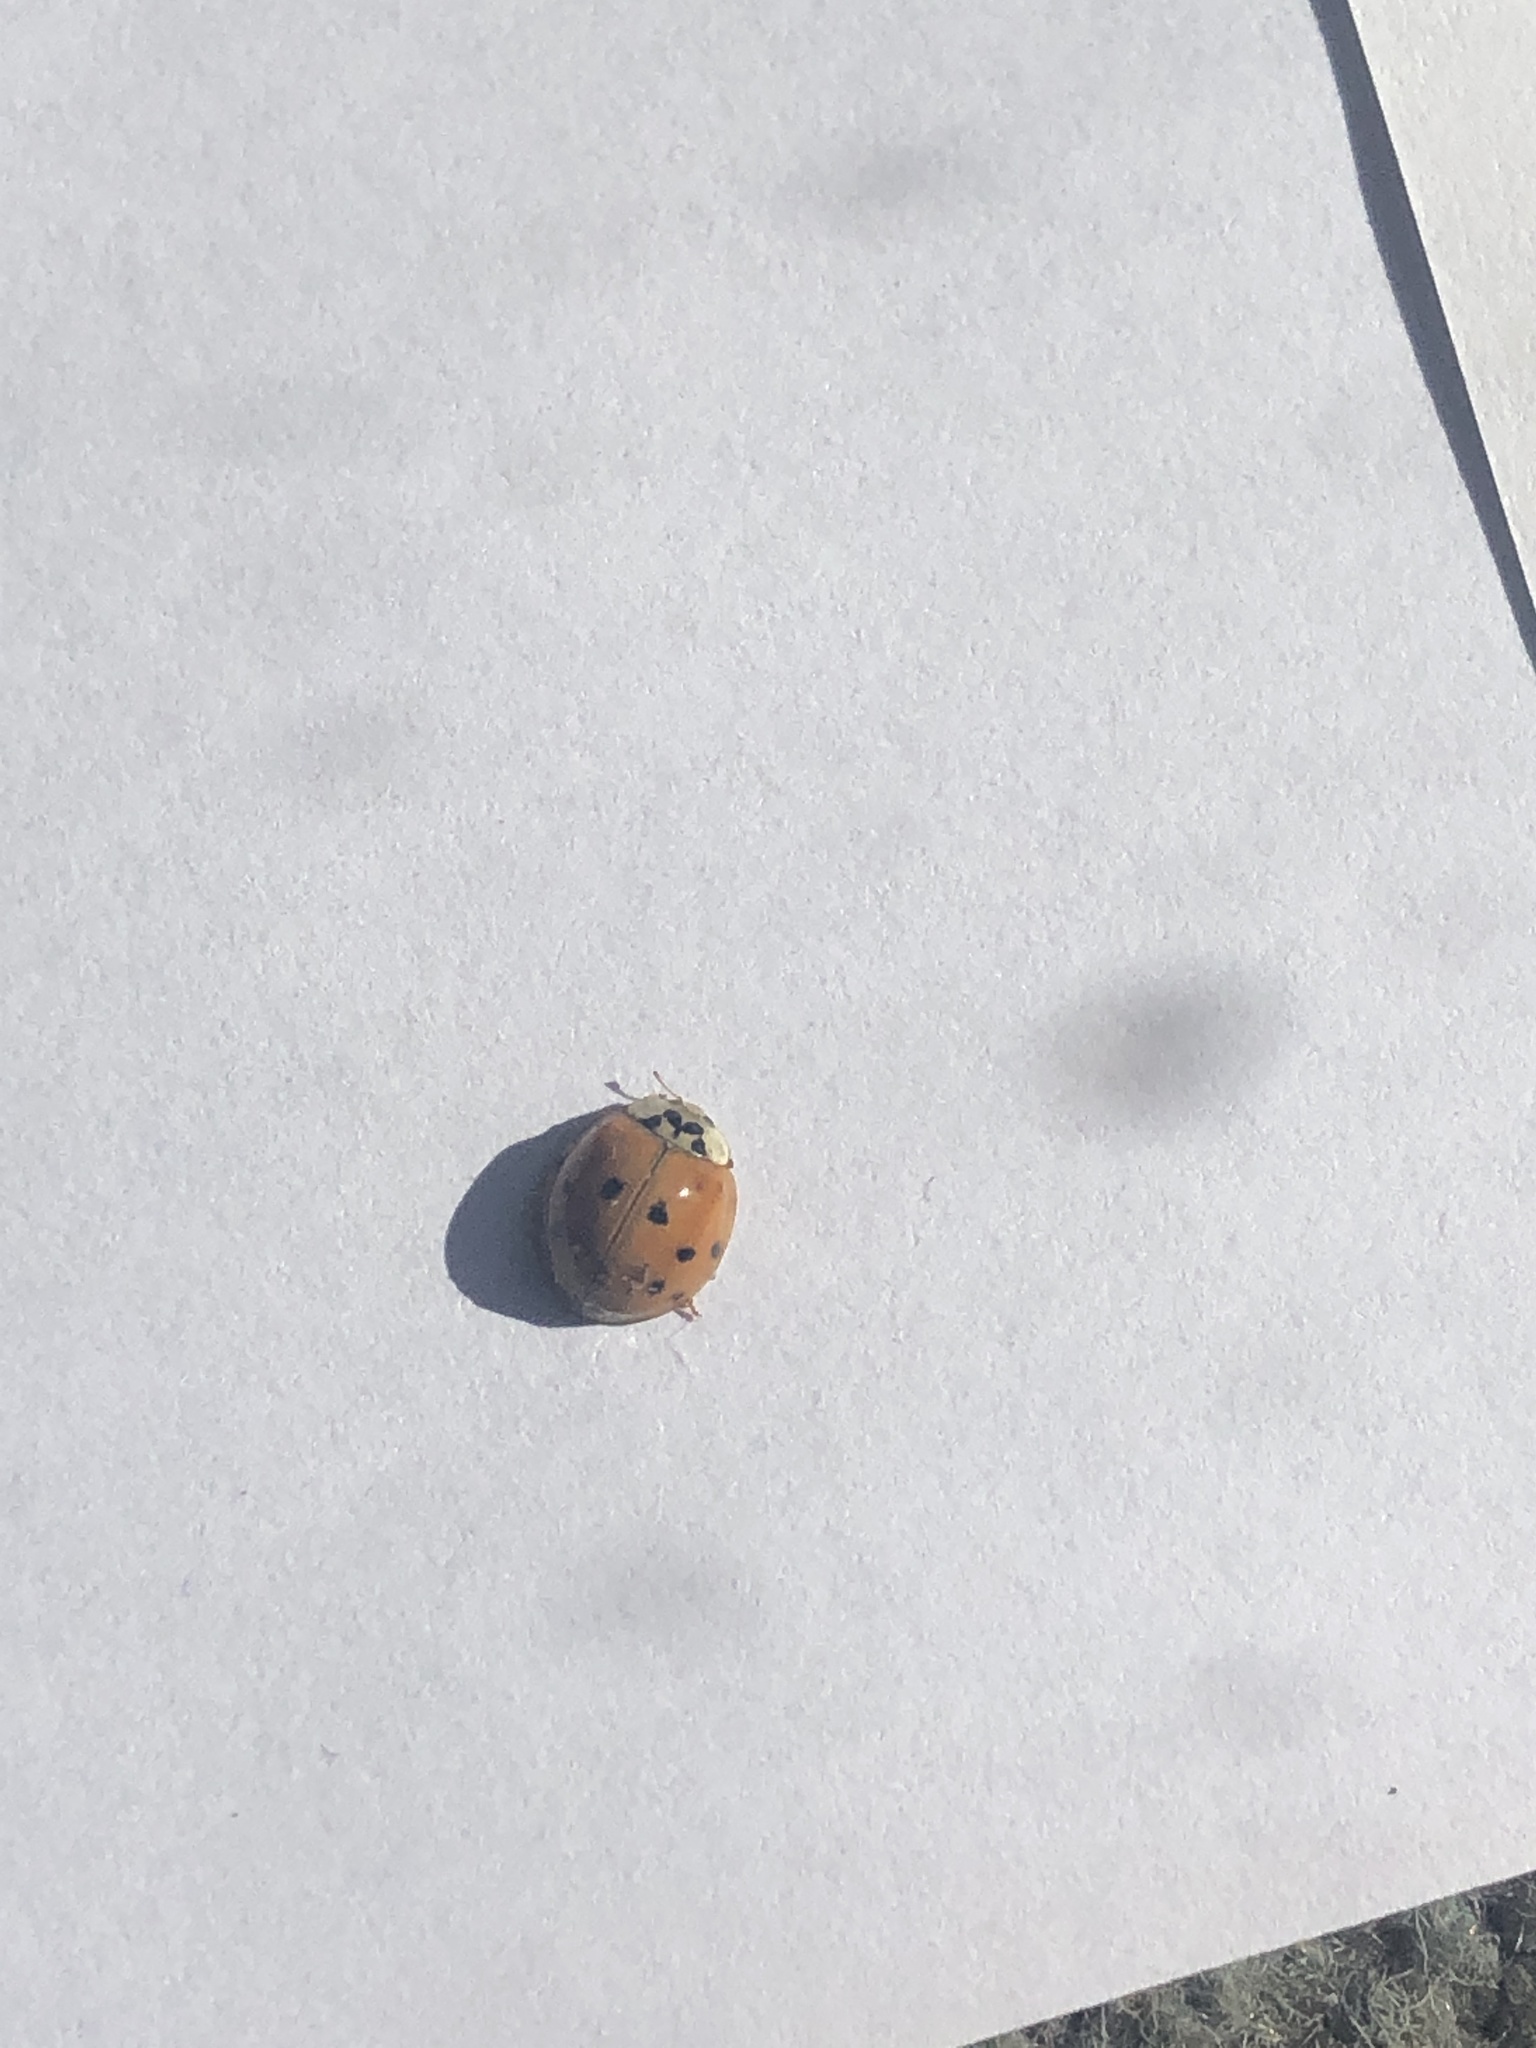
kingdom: Animalia
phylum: Arthropoda
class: Insecta
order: Coleoptera
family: Coccinellidae
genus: Harmonia
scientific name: Harmonia axyridis
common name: Harlequin ladybird
